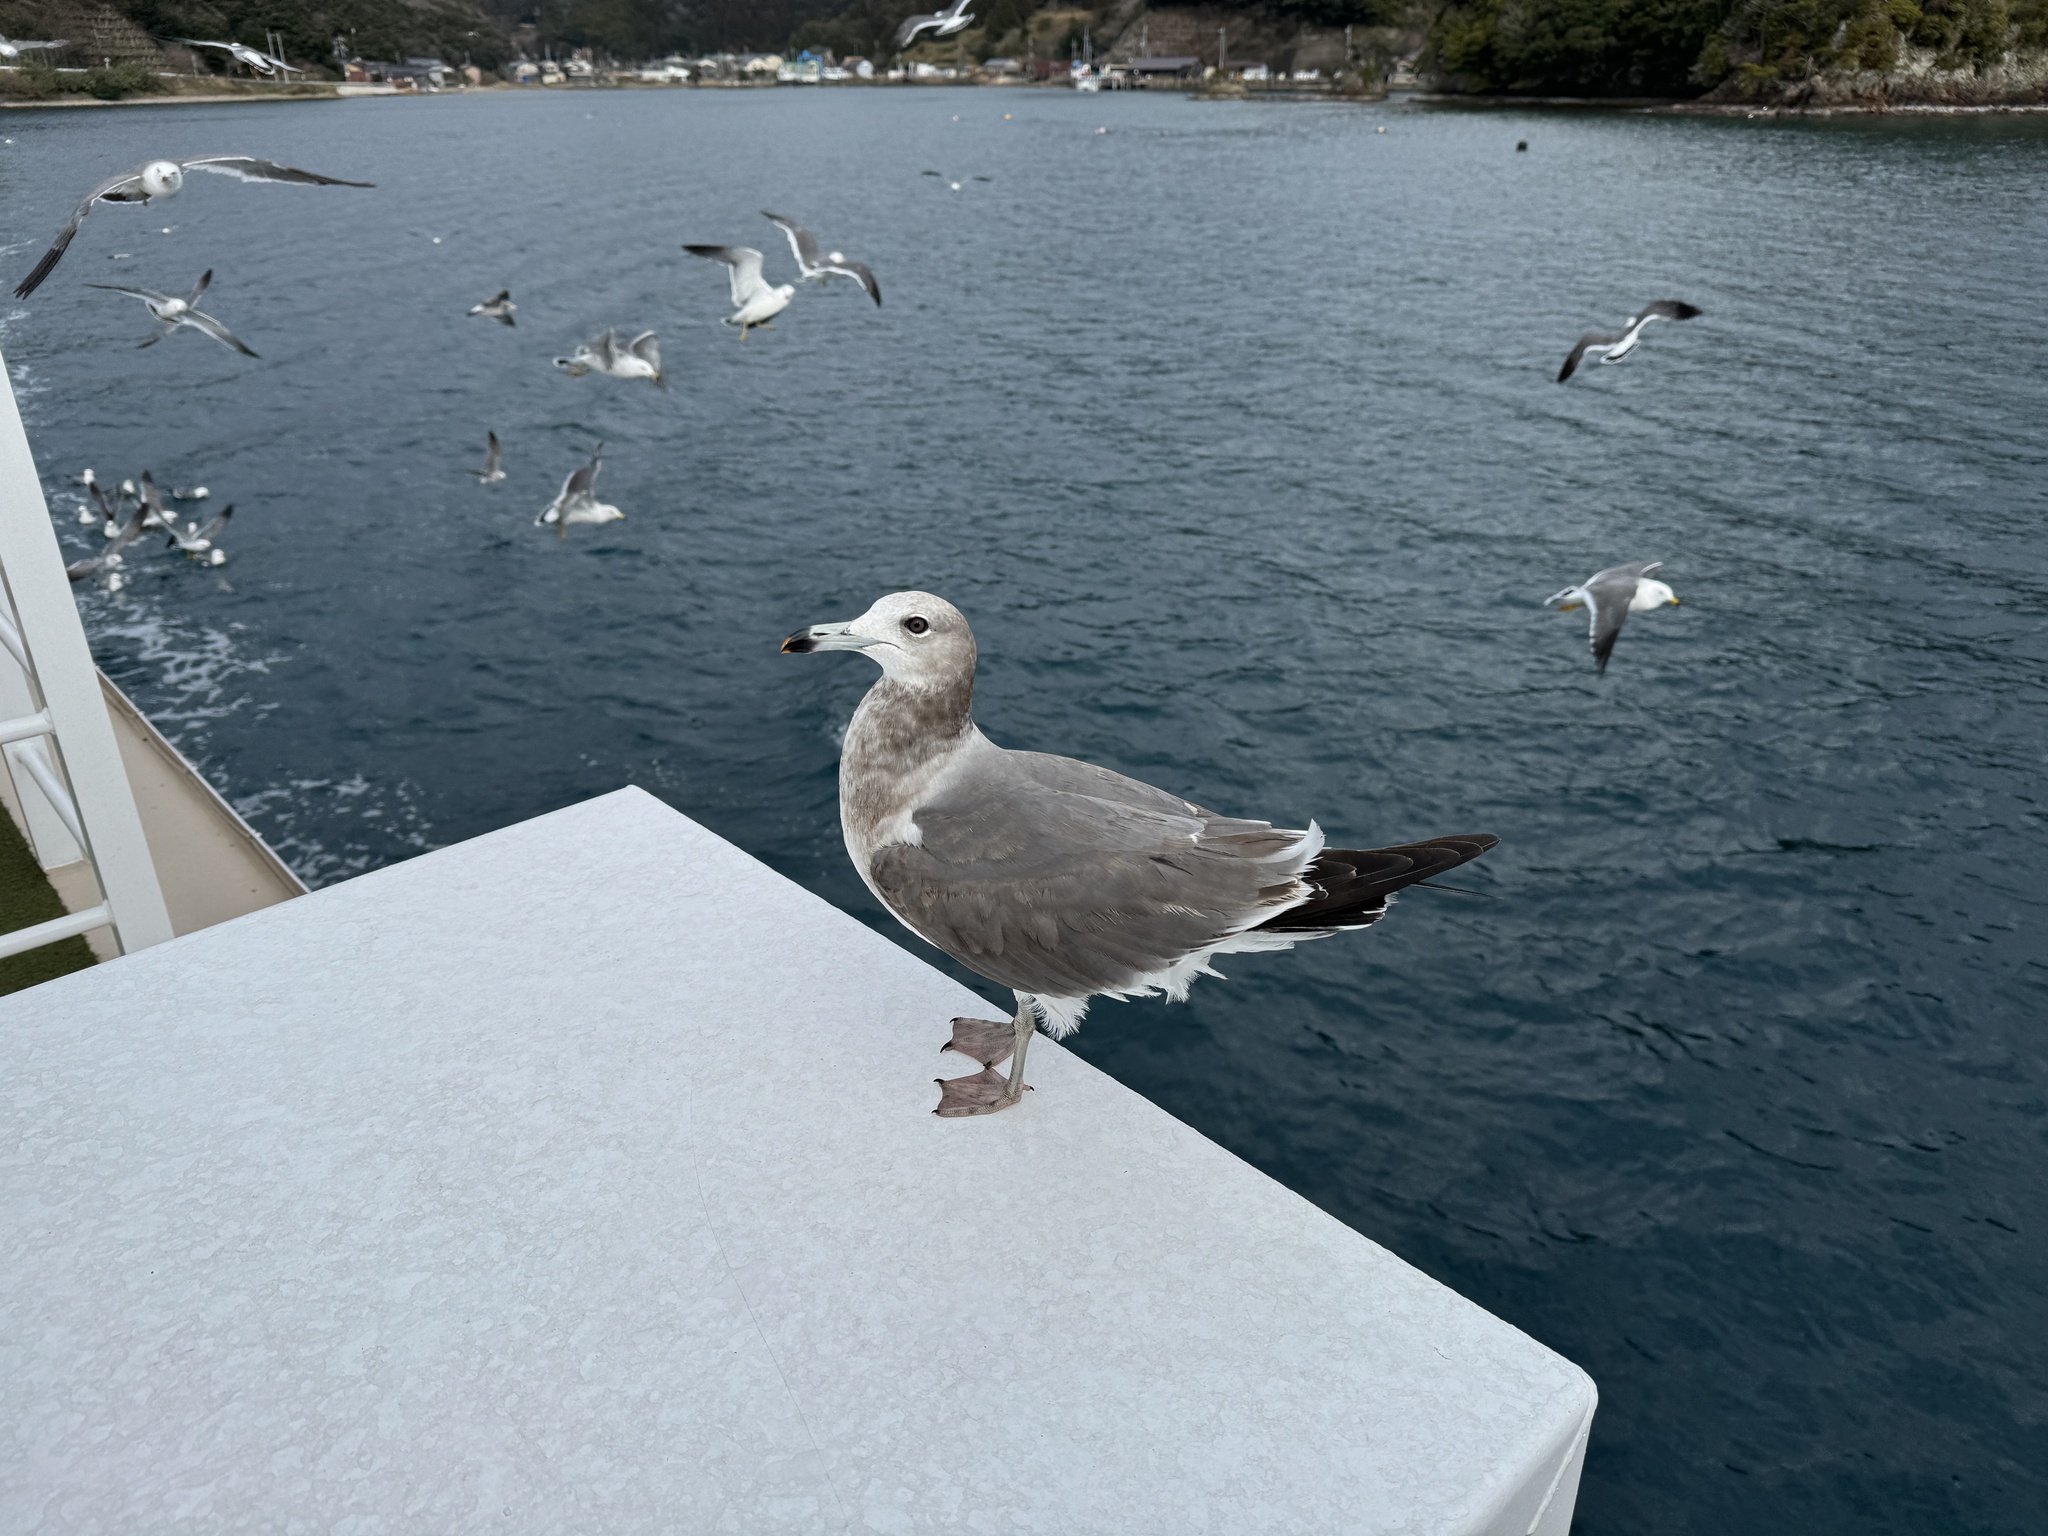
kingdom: Animalia
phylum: Chordata
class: Aves
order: Charadriiformes
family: Laridae
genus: Larus
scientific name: Larus crassirostris
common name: Black-tailed gull
